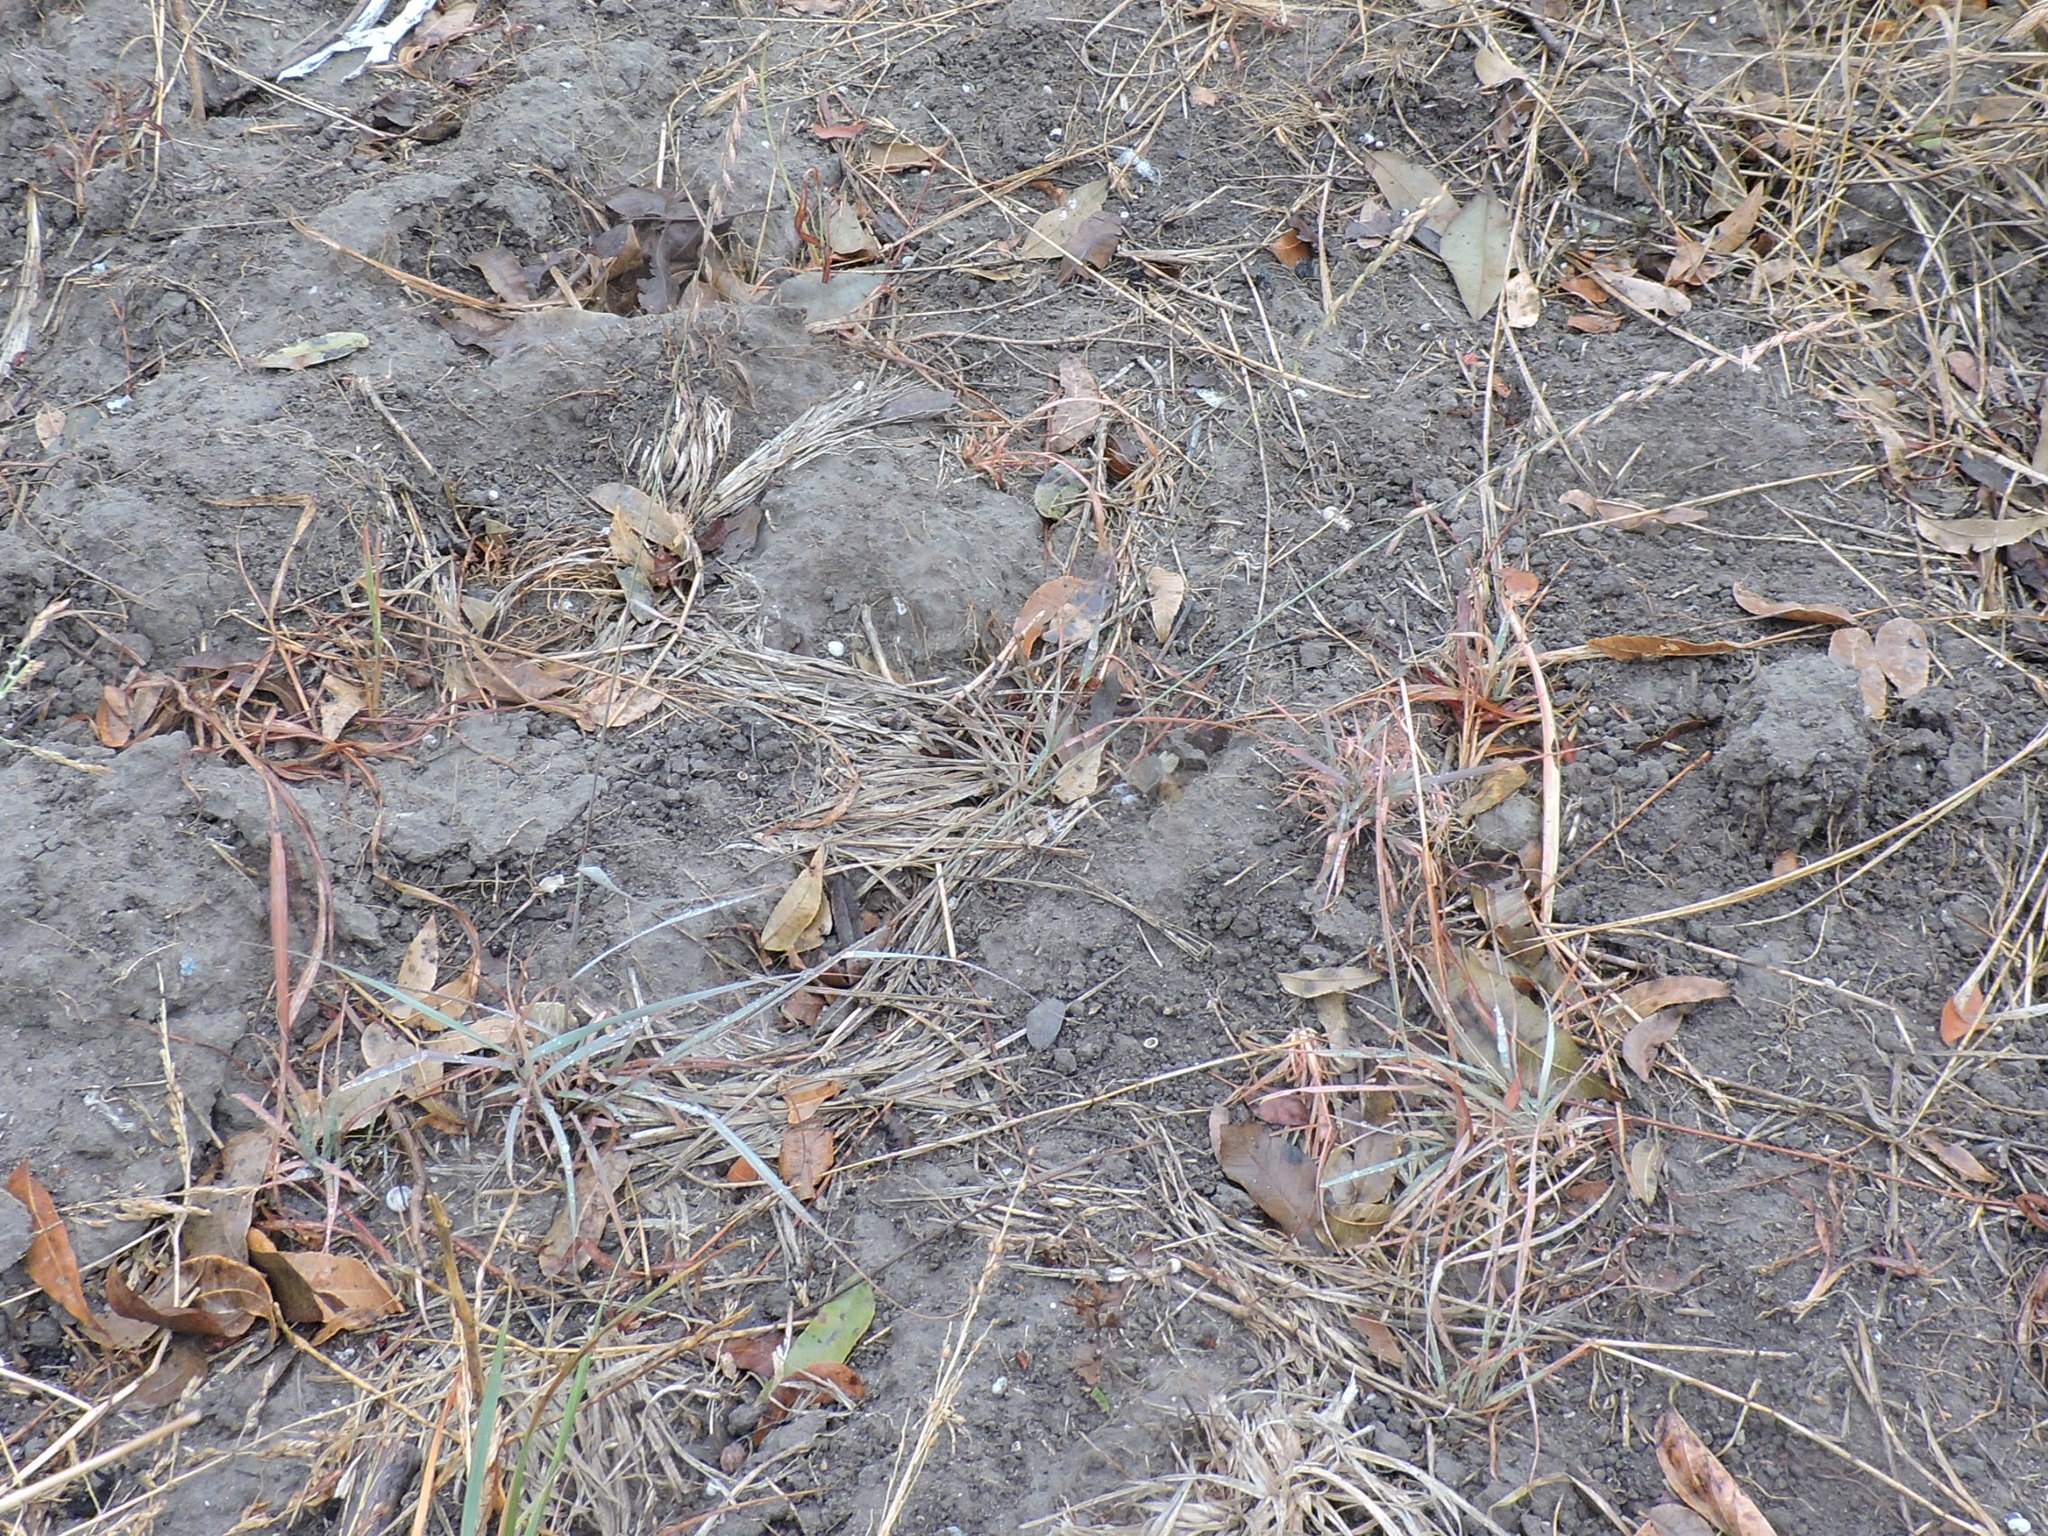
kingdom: Plantae
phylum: Tracheophyta
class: Liliopsida
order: Poales
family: Poaceae
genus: Bouteloua
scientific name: Bouteloua curtipendula
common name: Side-oats grama
